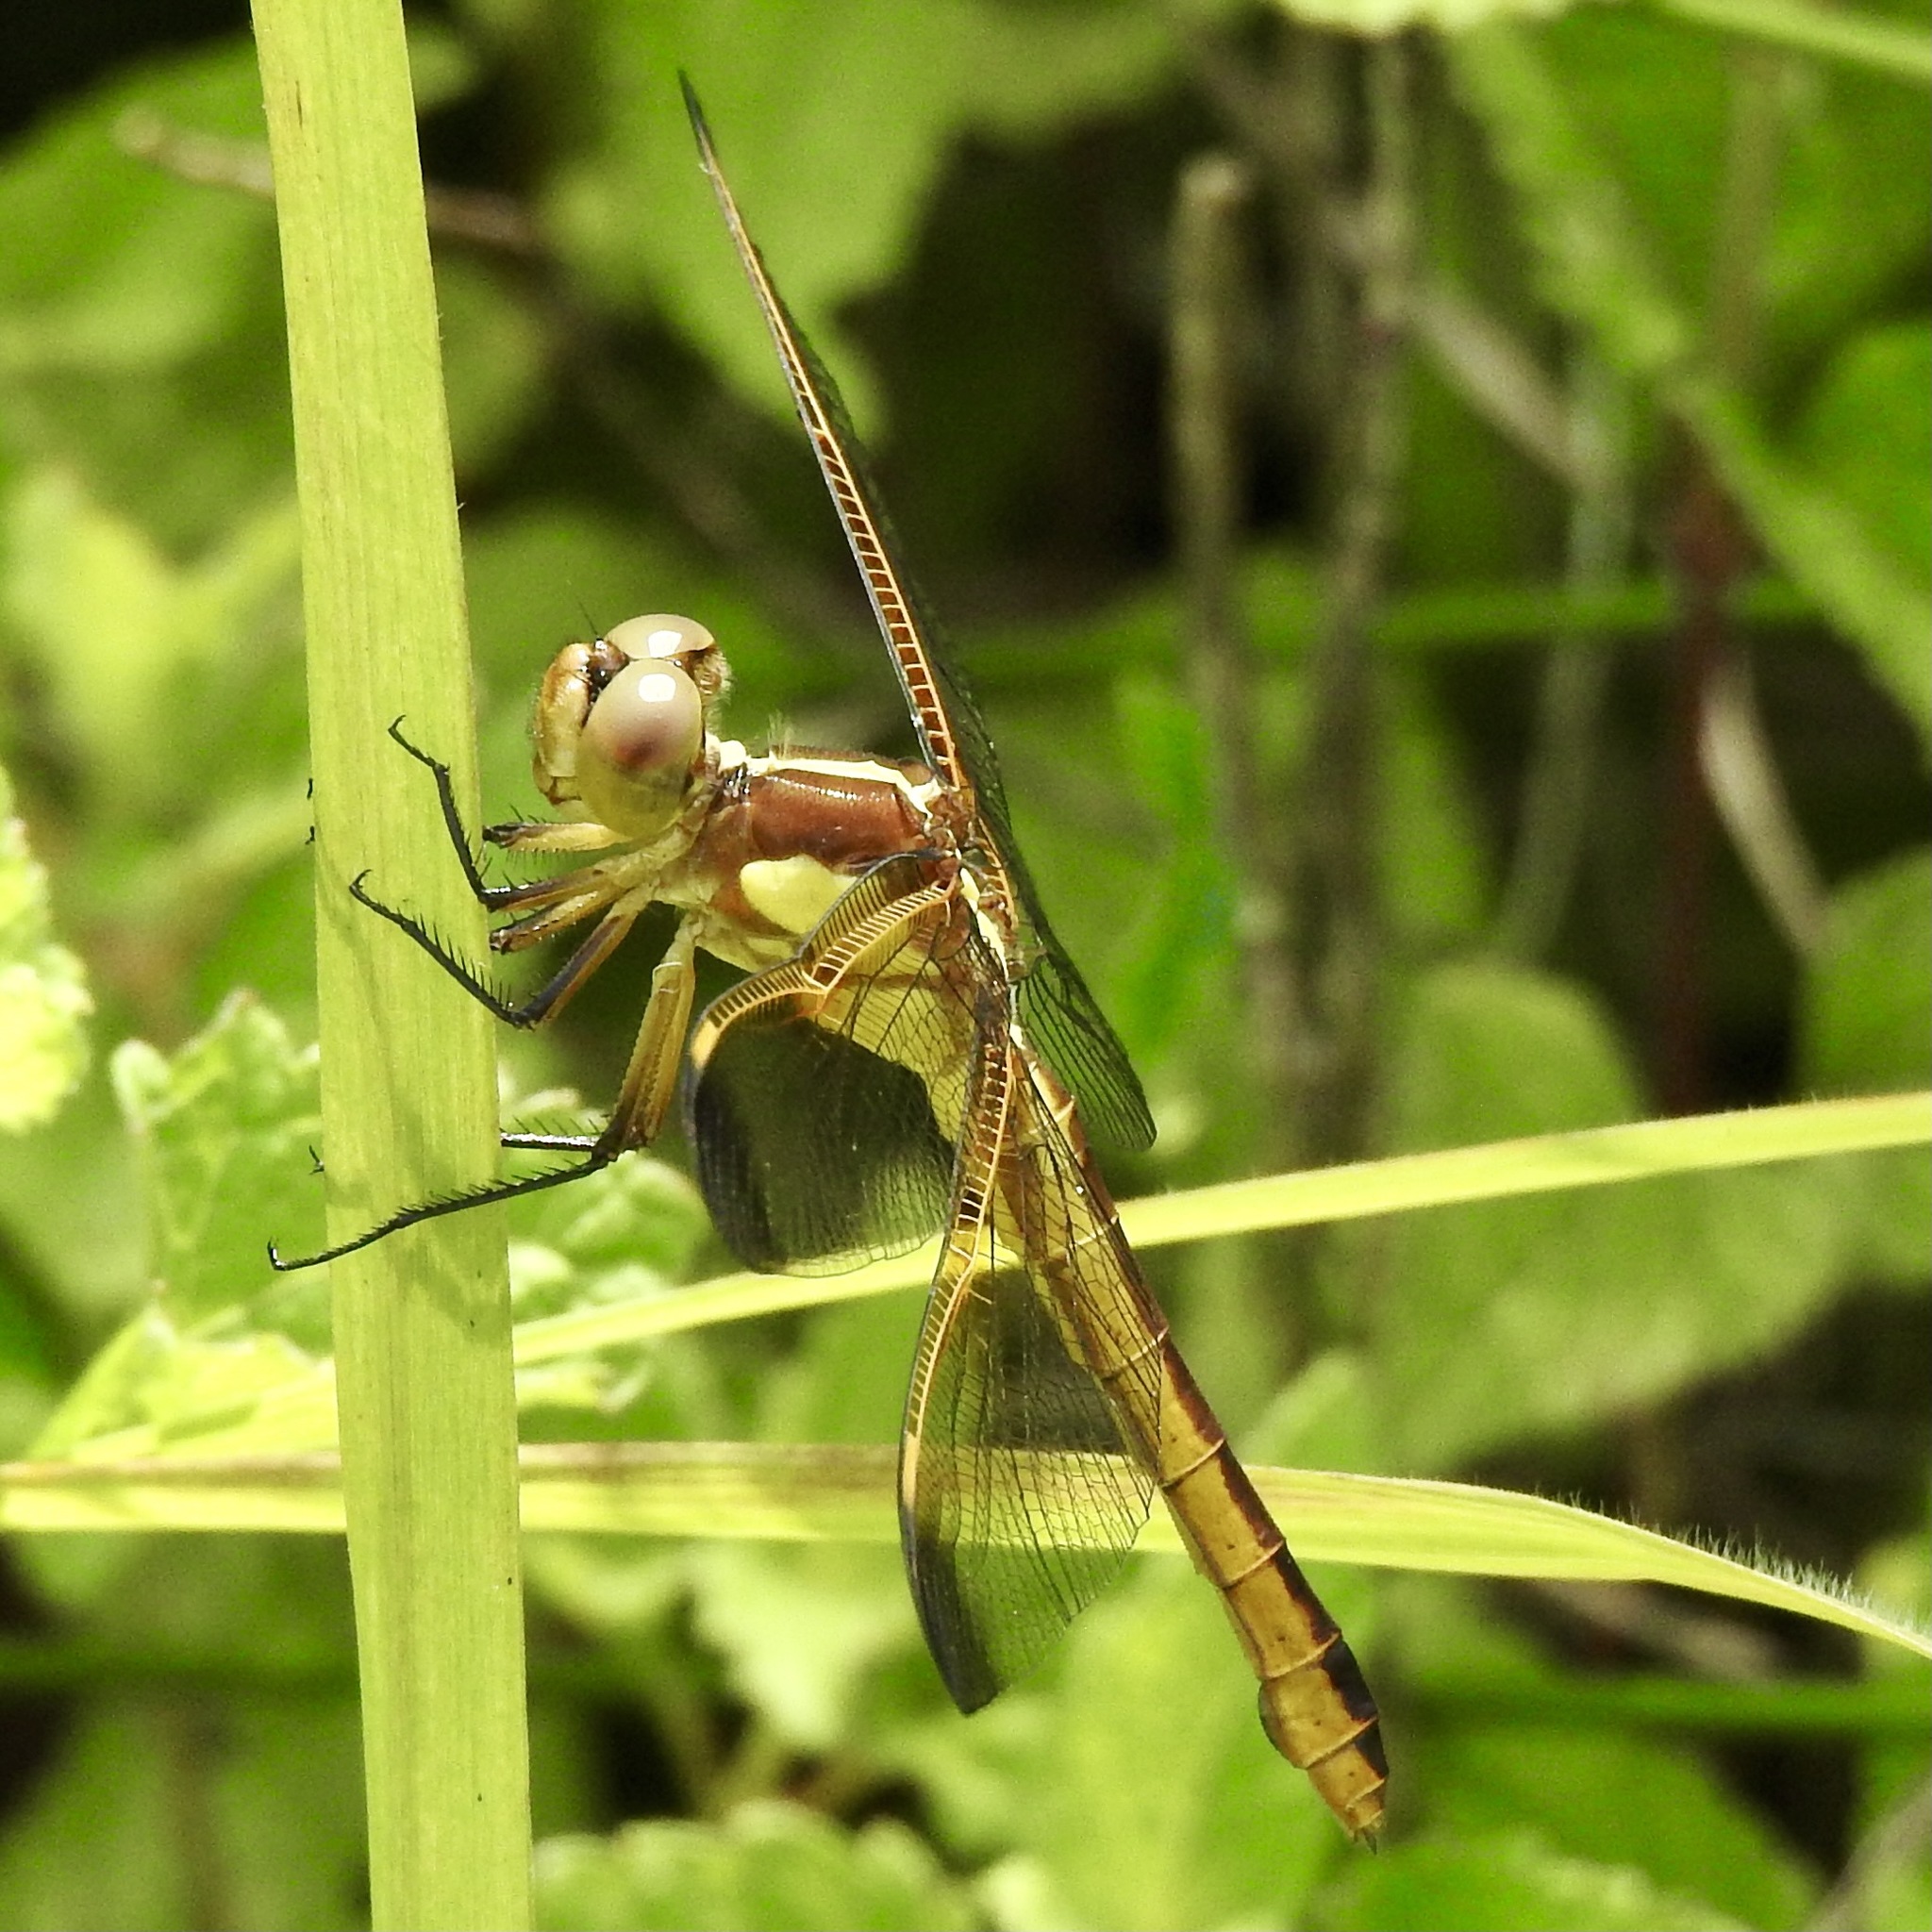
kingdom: Animalia
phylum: Arthropoda
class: Insecta
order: Odonata
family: Libellulidae
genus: Libellula
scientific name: Libellula flavida
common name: Yellow-sided skimmer
